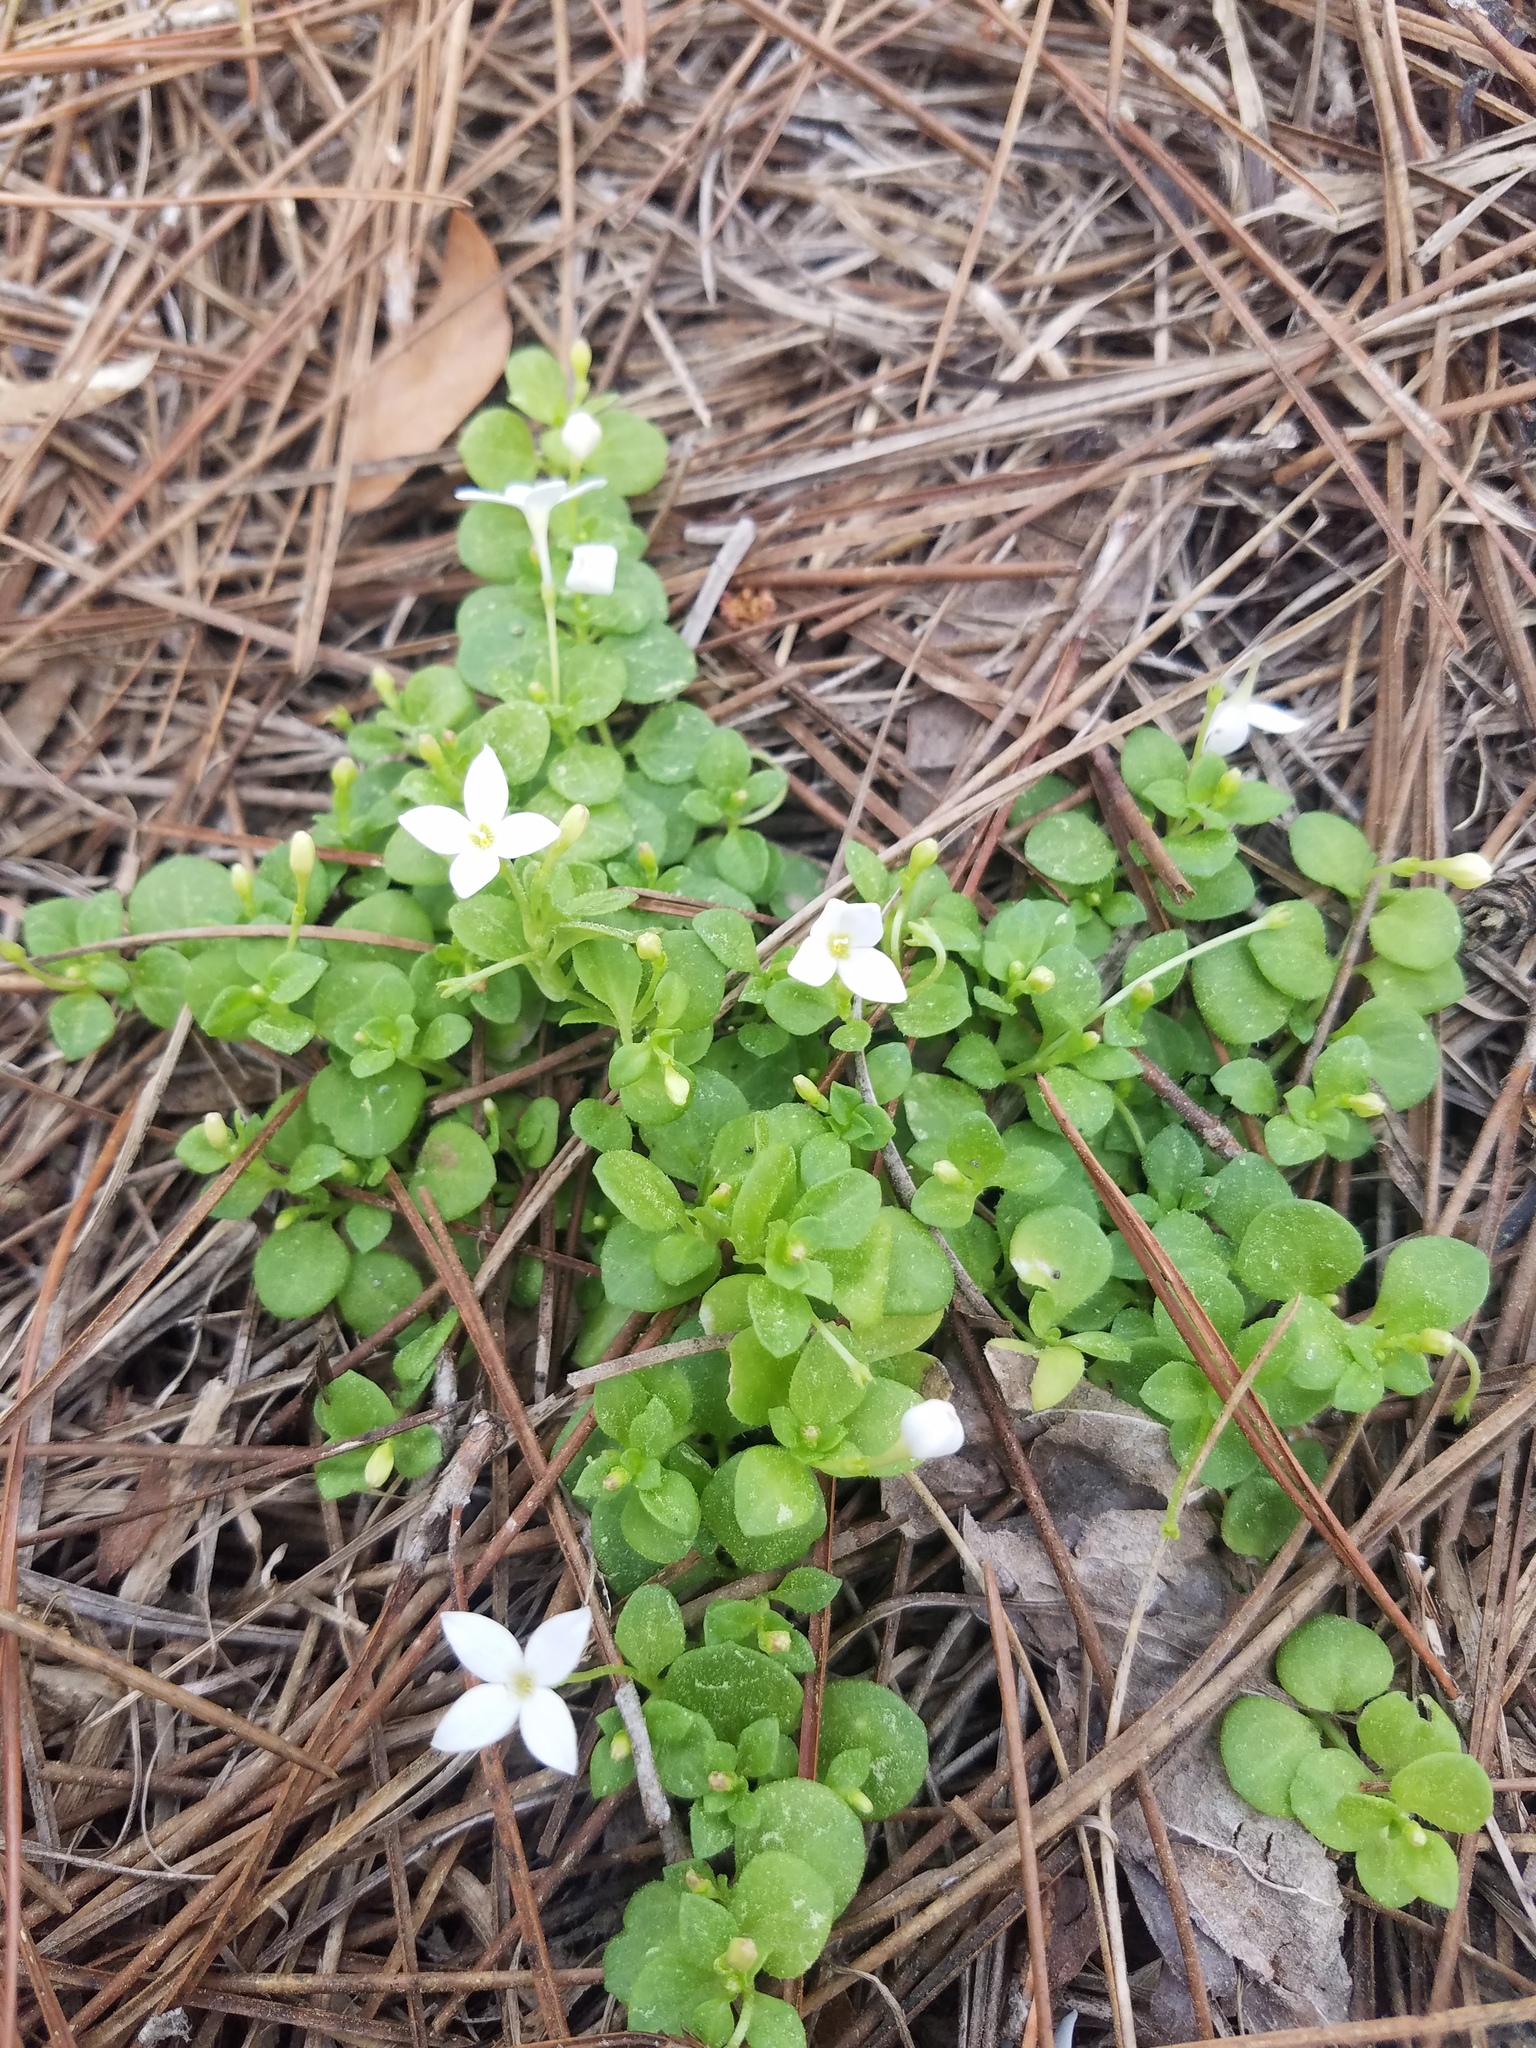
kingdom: Plantae
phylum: Tracheophyta
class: Magnoliopsida
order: Gentianales
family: Rubiaceae
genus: Houstonia
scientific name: Houstonia procumbens
